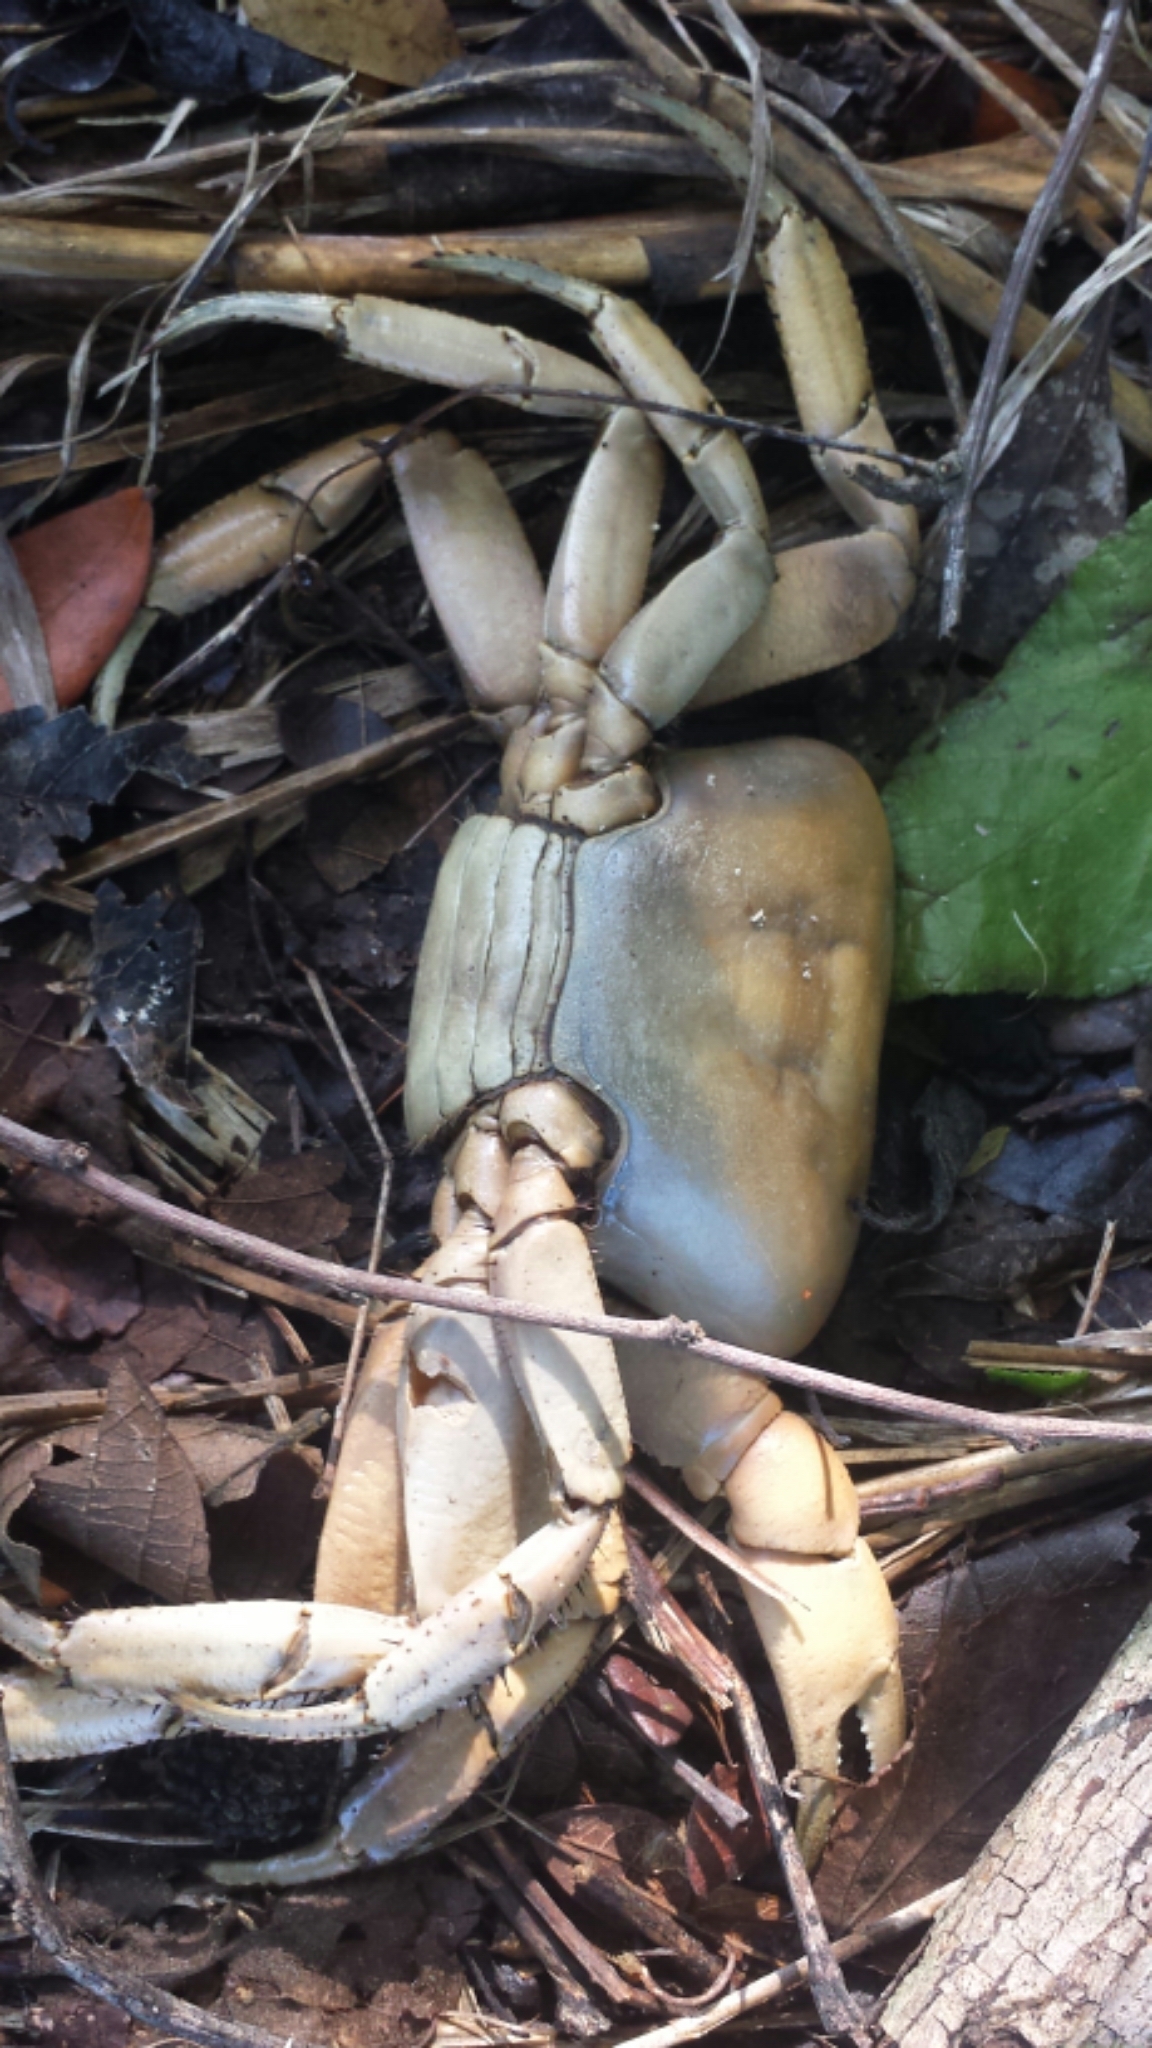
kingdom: Animalia
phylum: Arthropoda
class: Malacostraca
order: Decapoda
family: Gecarcinidae
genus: Cardisoma
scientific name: Cardisoma guanhumi
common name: Great land crab
